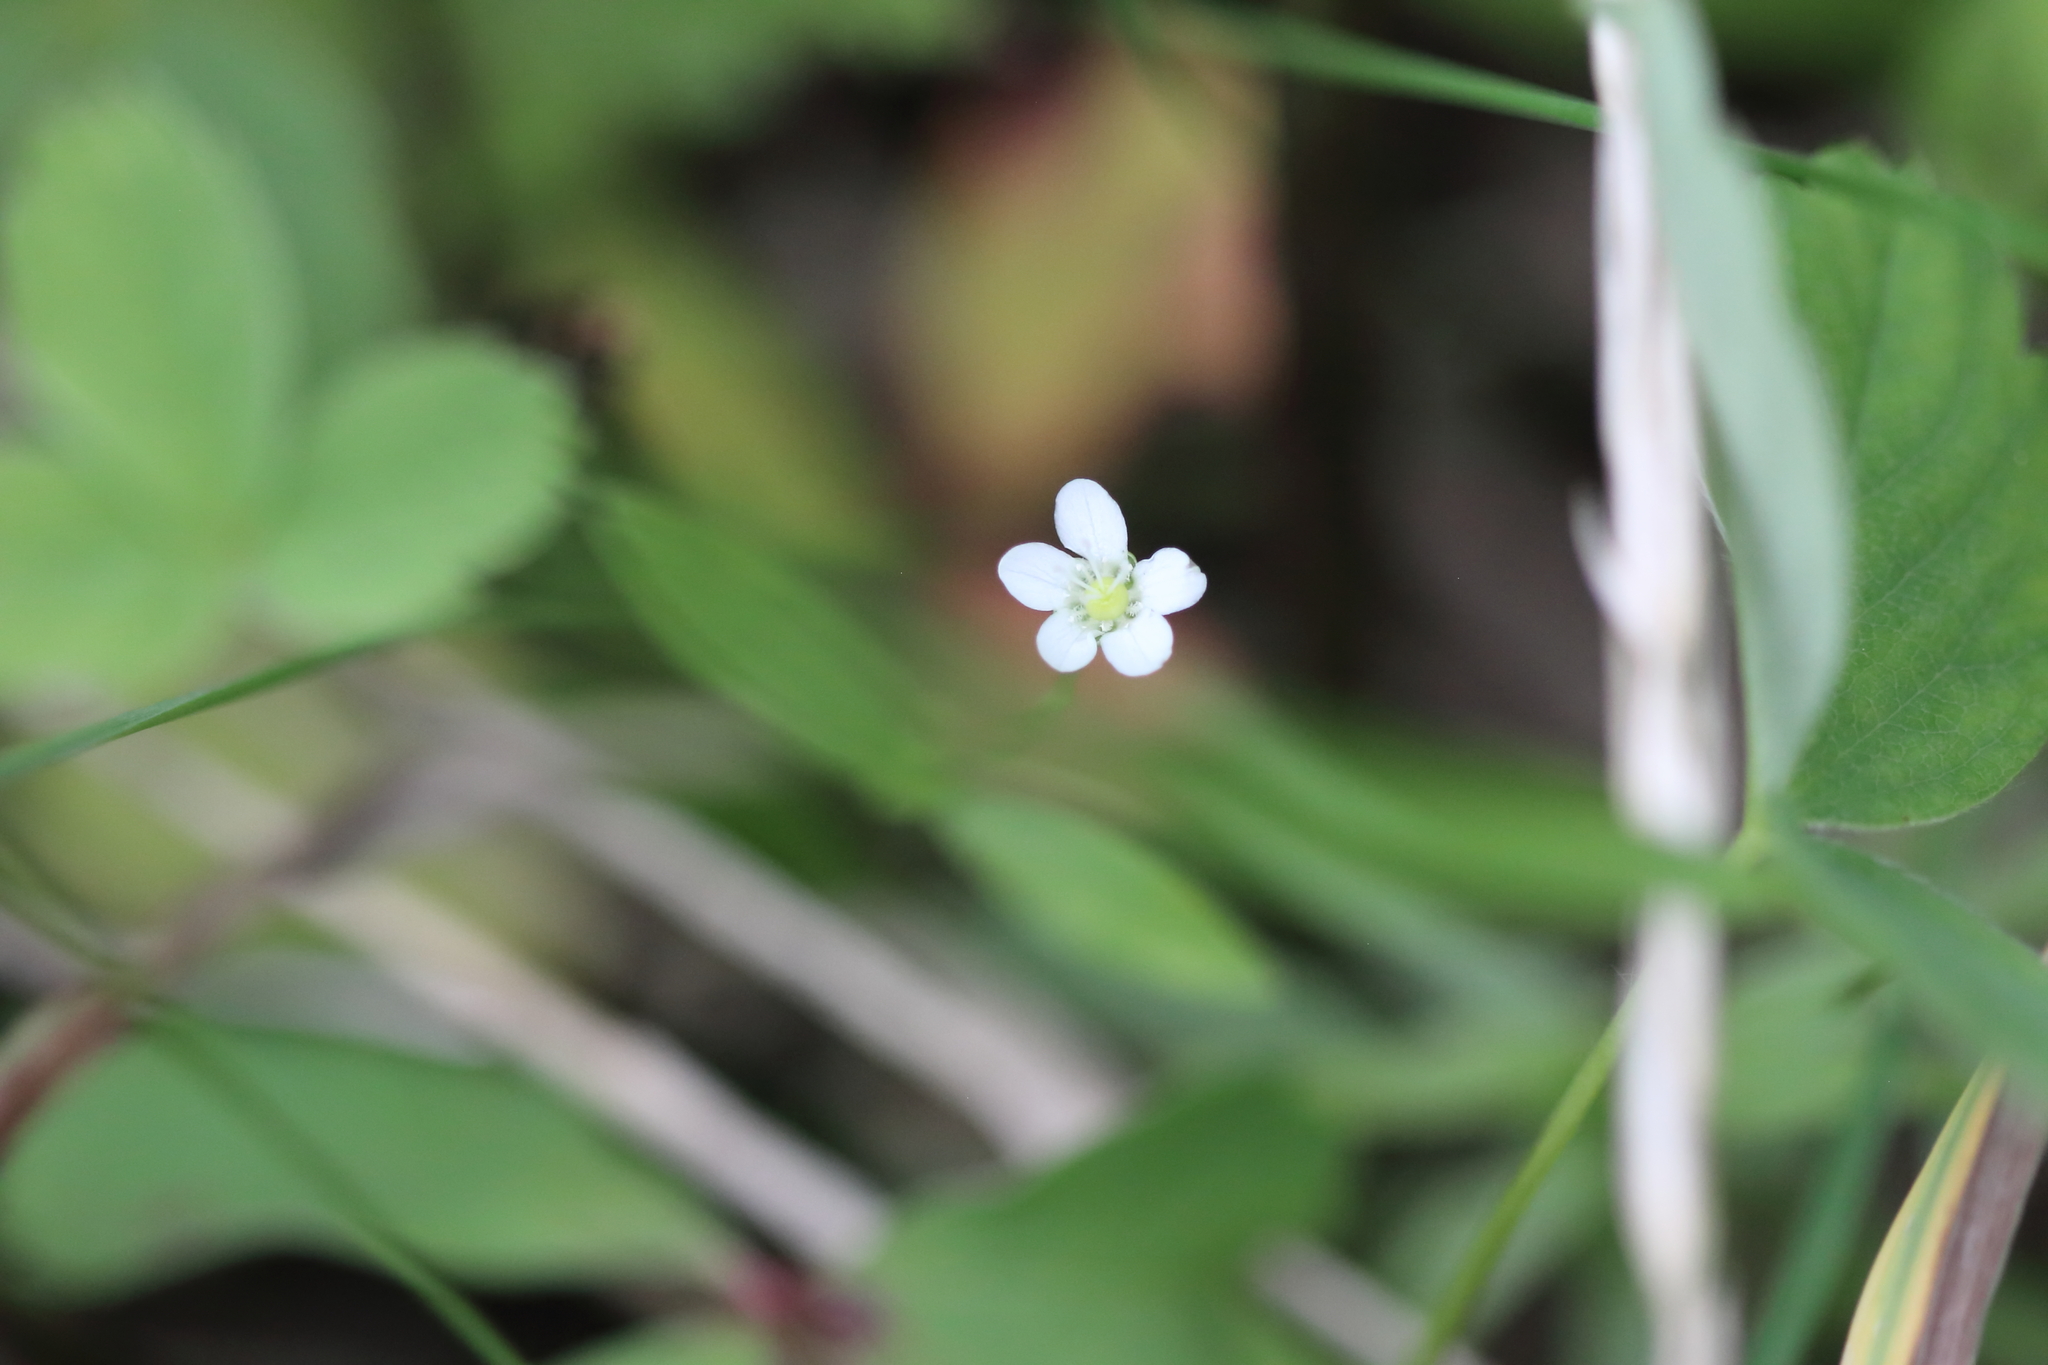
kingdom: Plantae
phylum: Tracheophyta
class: Magnoliopsida
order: Caryophyllales
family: Caryophyllaceae
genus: Moehringia
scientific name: Moehringia lateriflora
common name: Blunt-leaved sandwort
